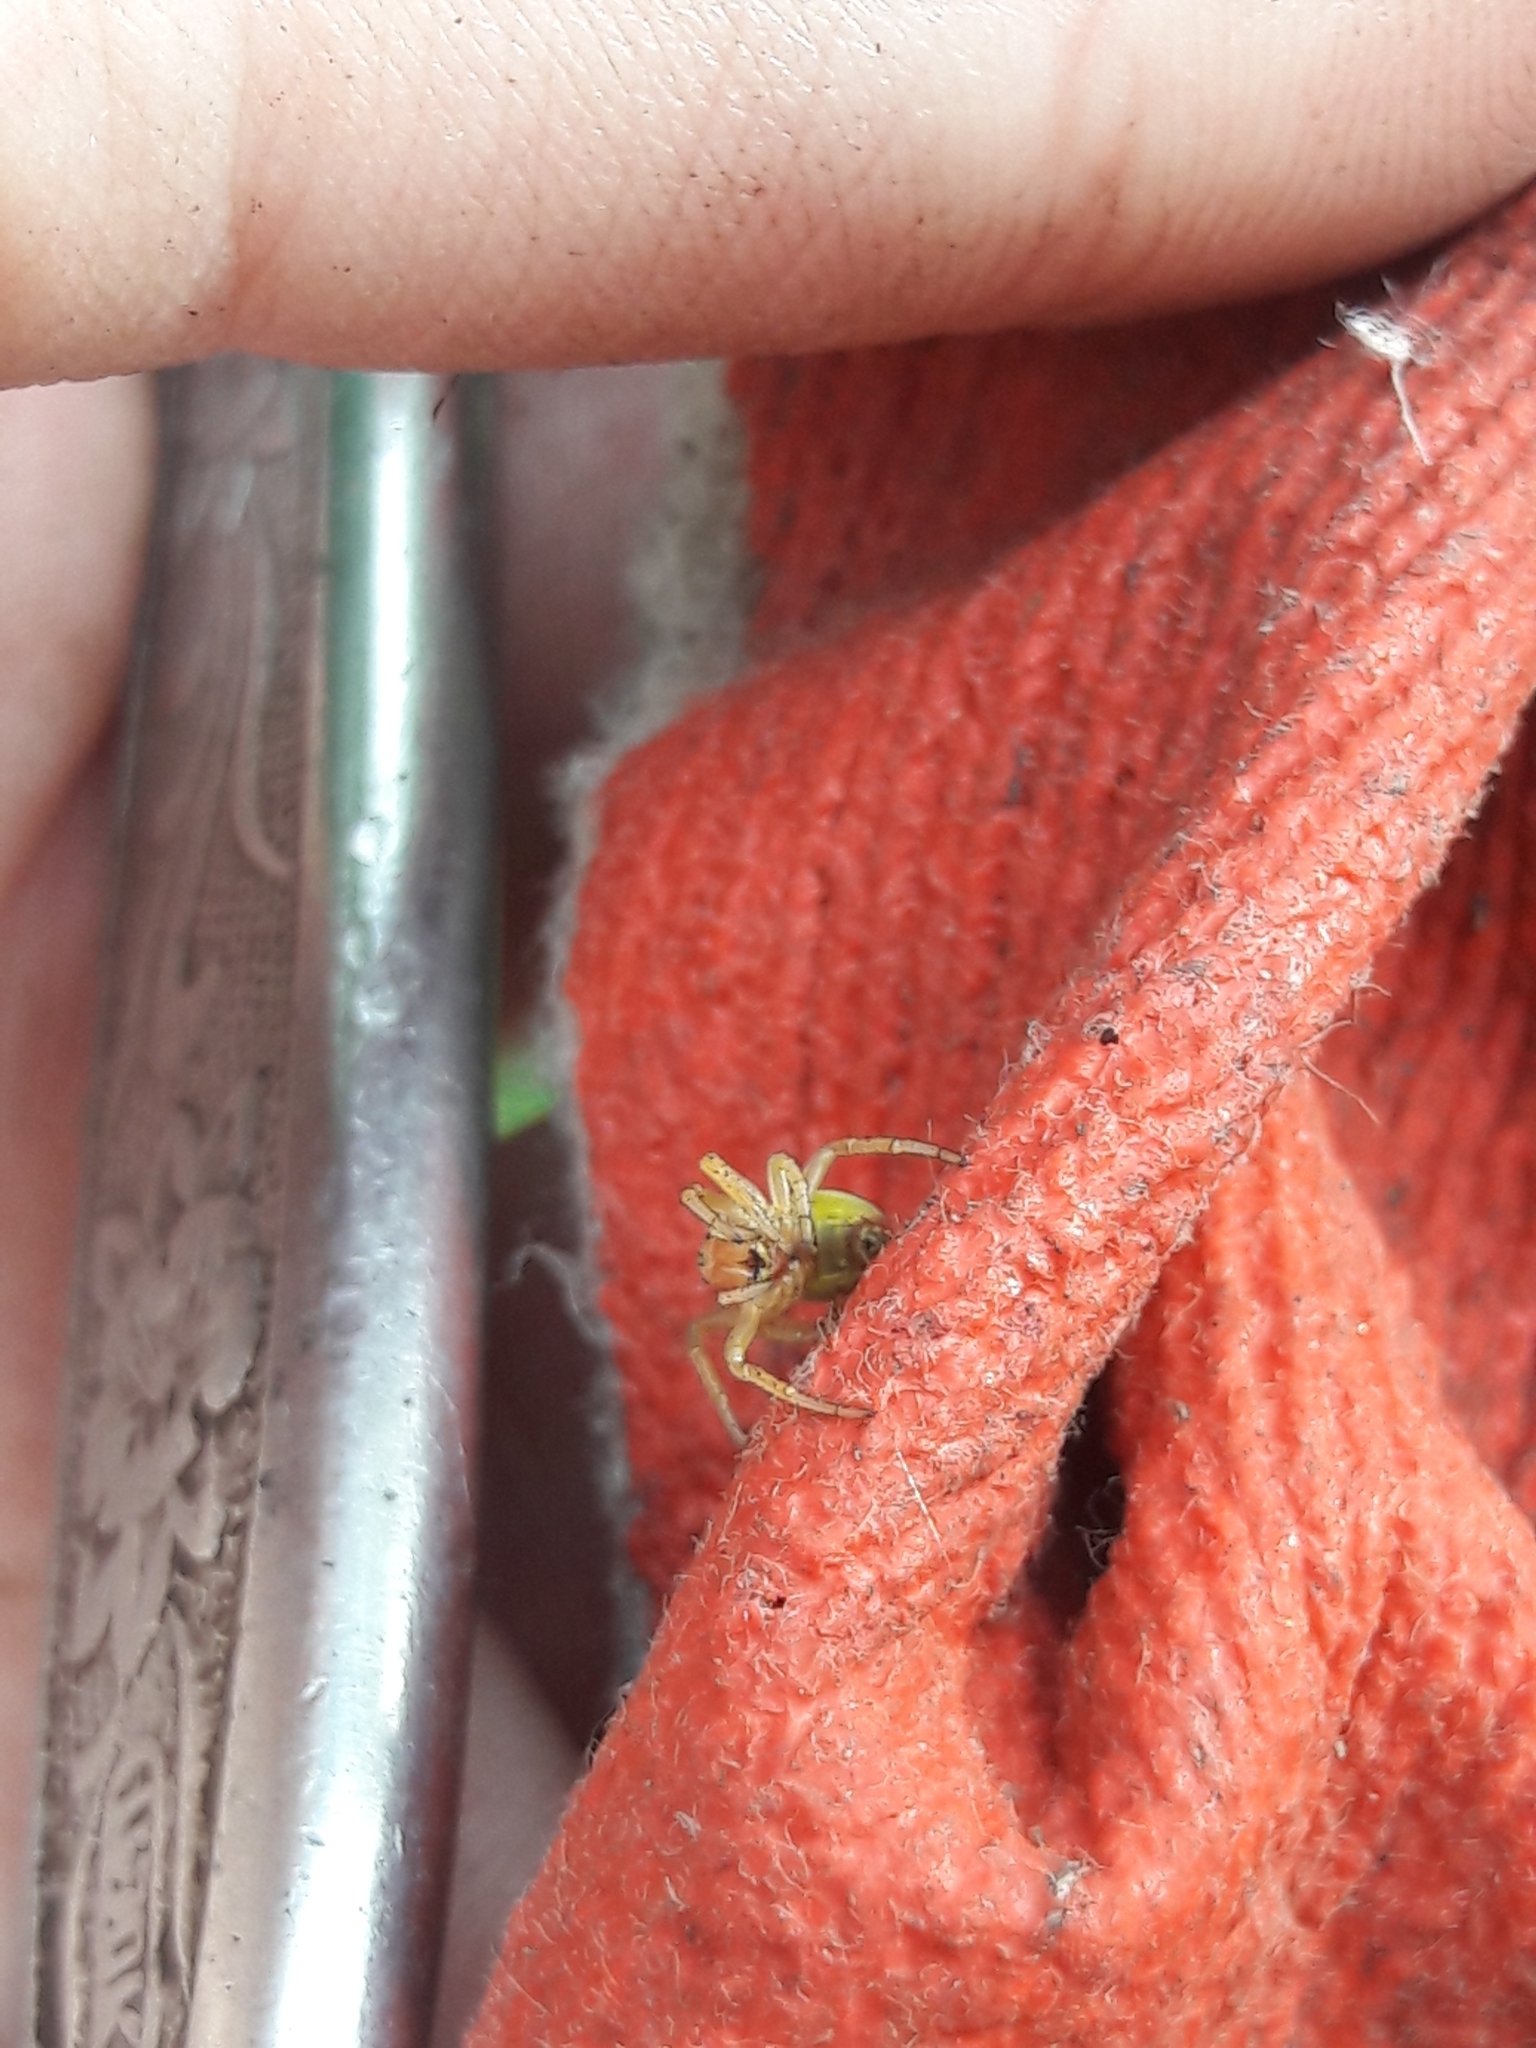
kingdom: Animalia
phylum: Arthropoda
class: Arachnida
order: Araneae
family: Araneidae
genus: Araniella
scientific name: Araniella proxima
